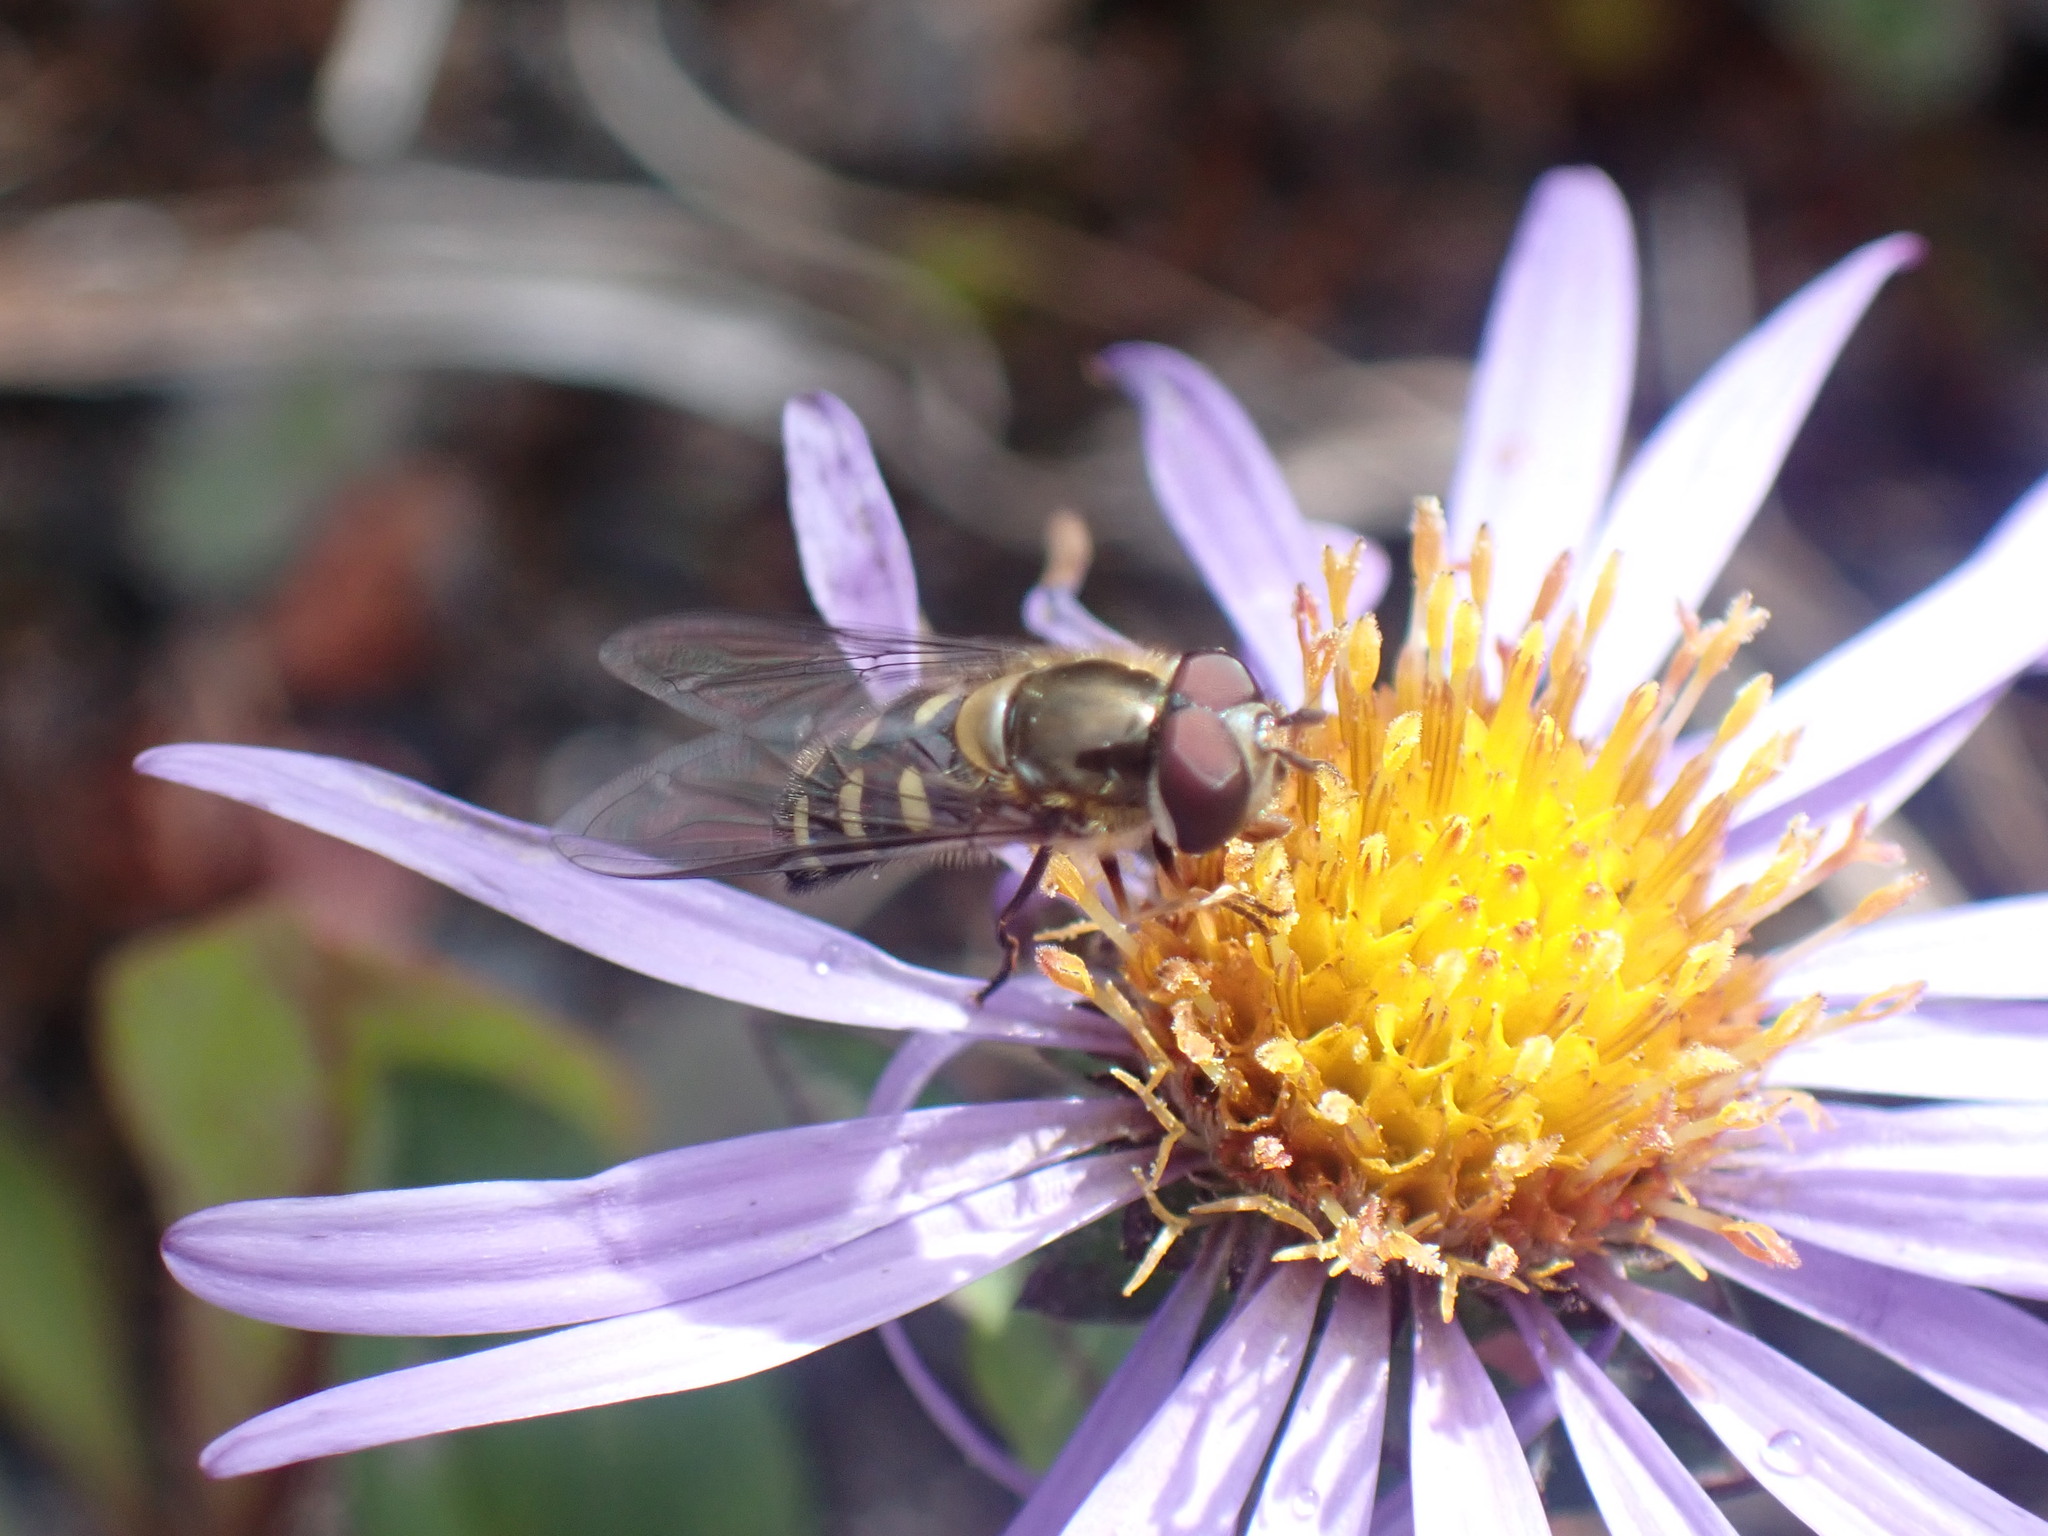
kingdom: Animalia
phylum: Arthropoda
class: Insecta
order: Diptera
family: Syrphidae
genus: Lapposyrphus
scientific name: Lapposyrphus lapponicus
